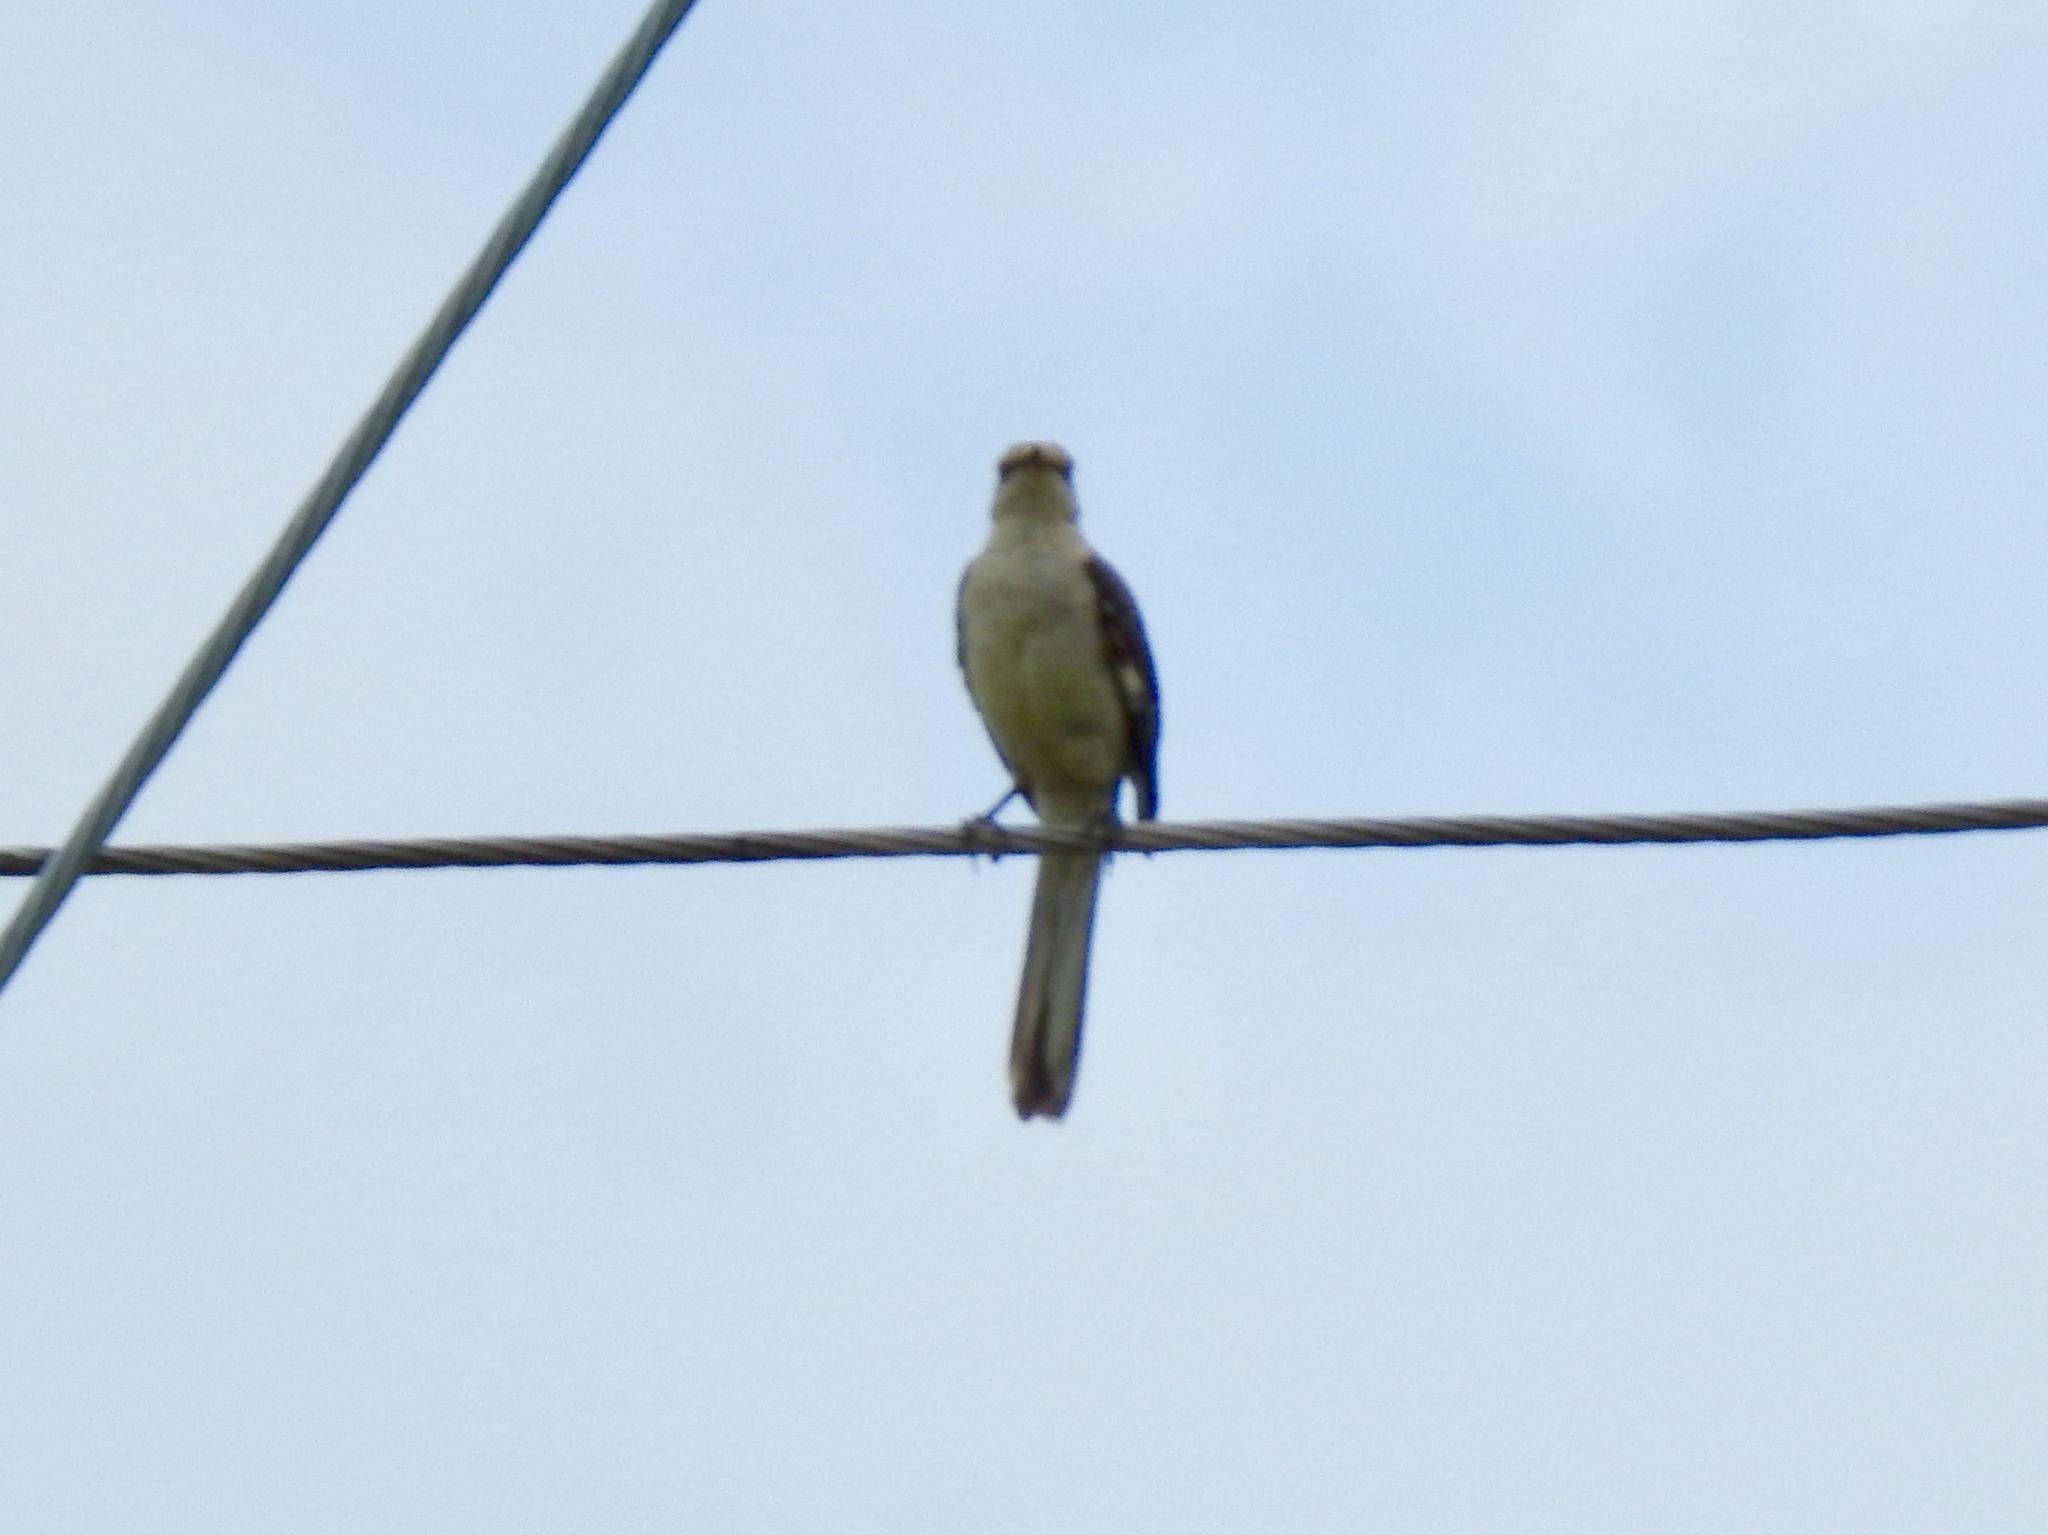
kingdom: Animalia
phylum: Chordata
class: Aves
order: Passeriformes
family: Mimidae
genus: Mimus
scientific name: Mimus polyglottos
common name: Northern mockingbird
